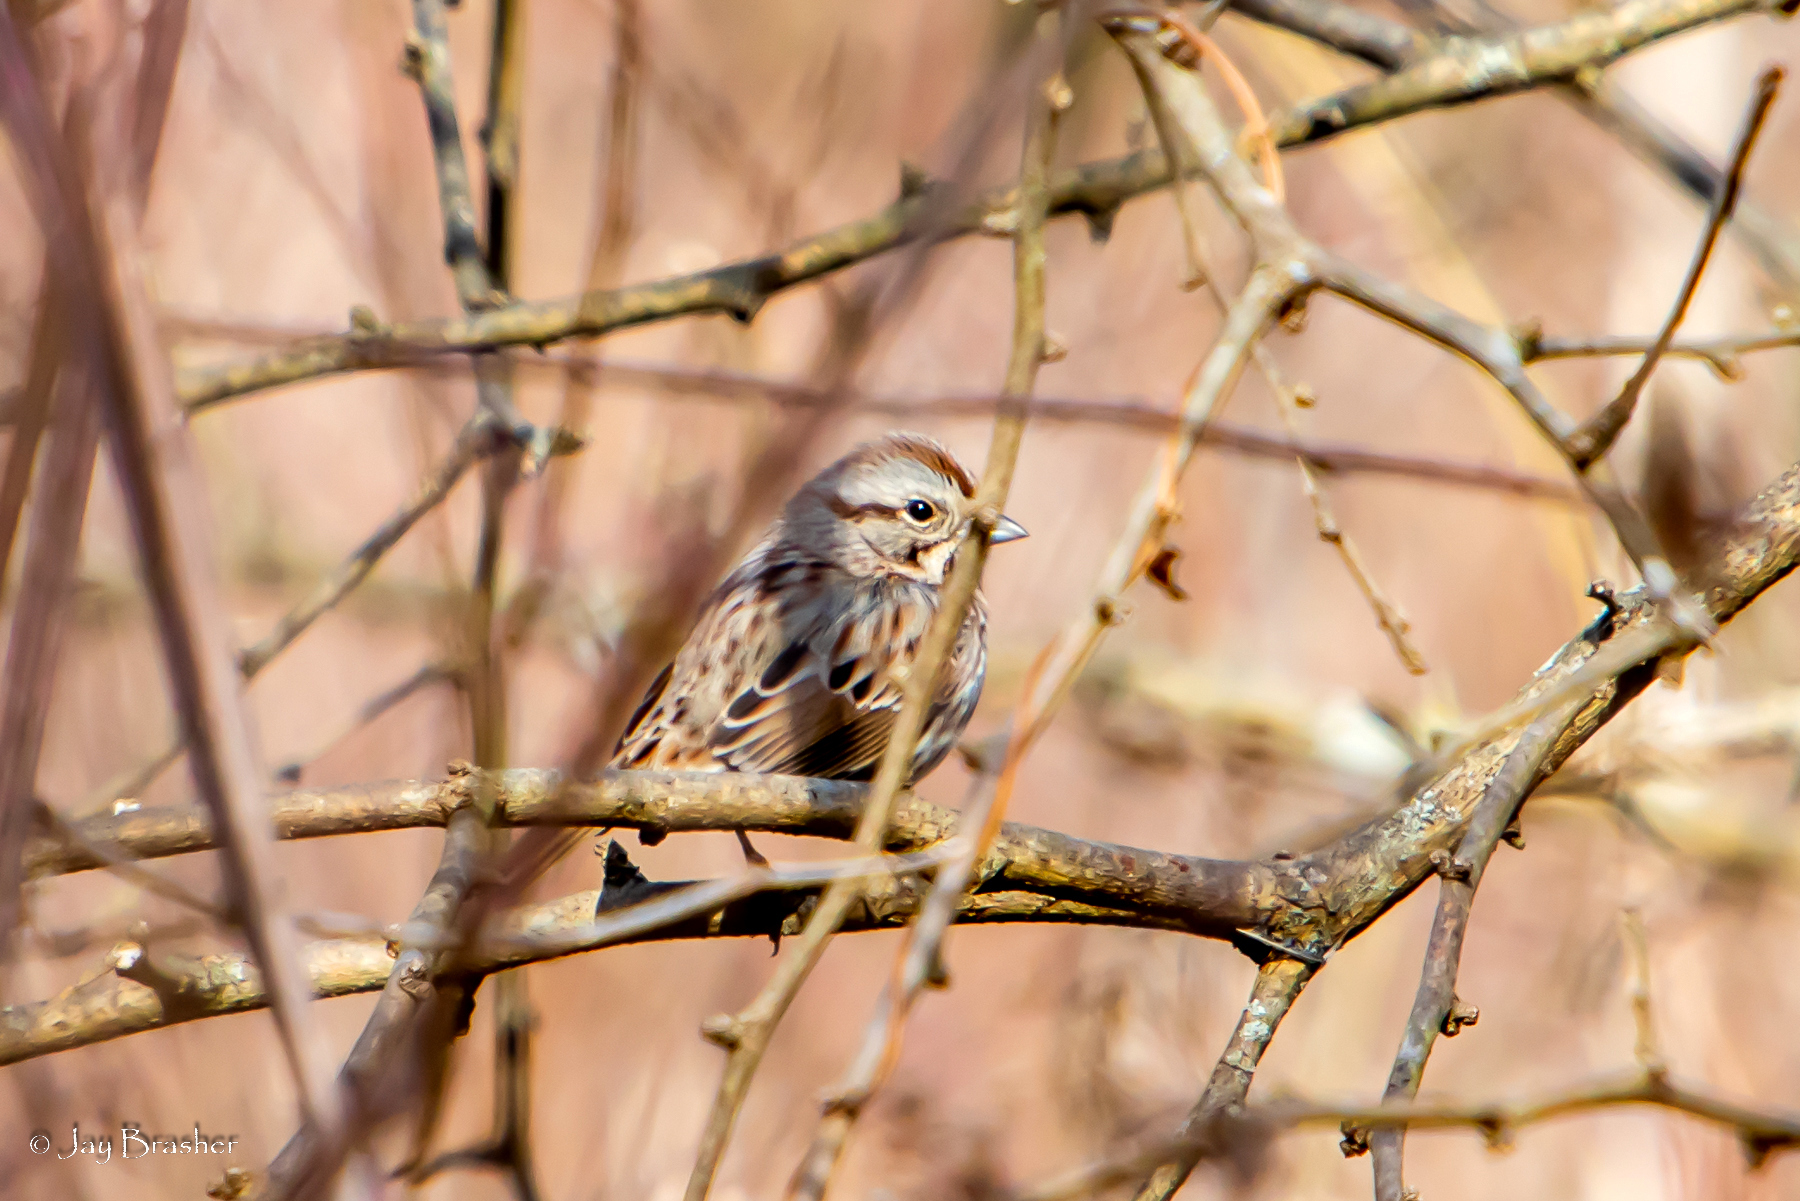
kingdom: Animalia
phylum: Chordata
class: Aves
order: Passeriformes
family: Passerellidae
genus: Melospiza
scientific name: Melospiza melodia
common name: Song sparrow
